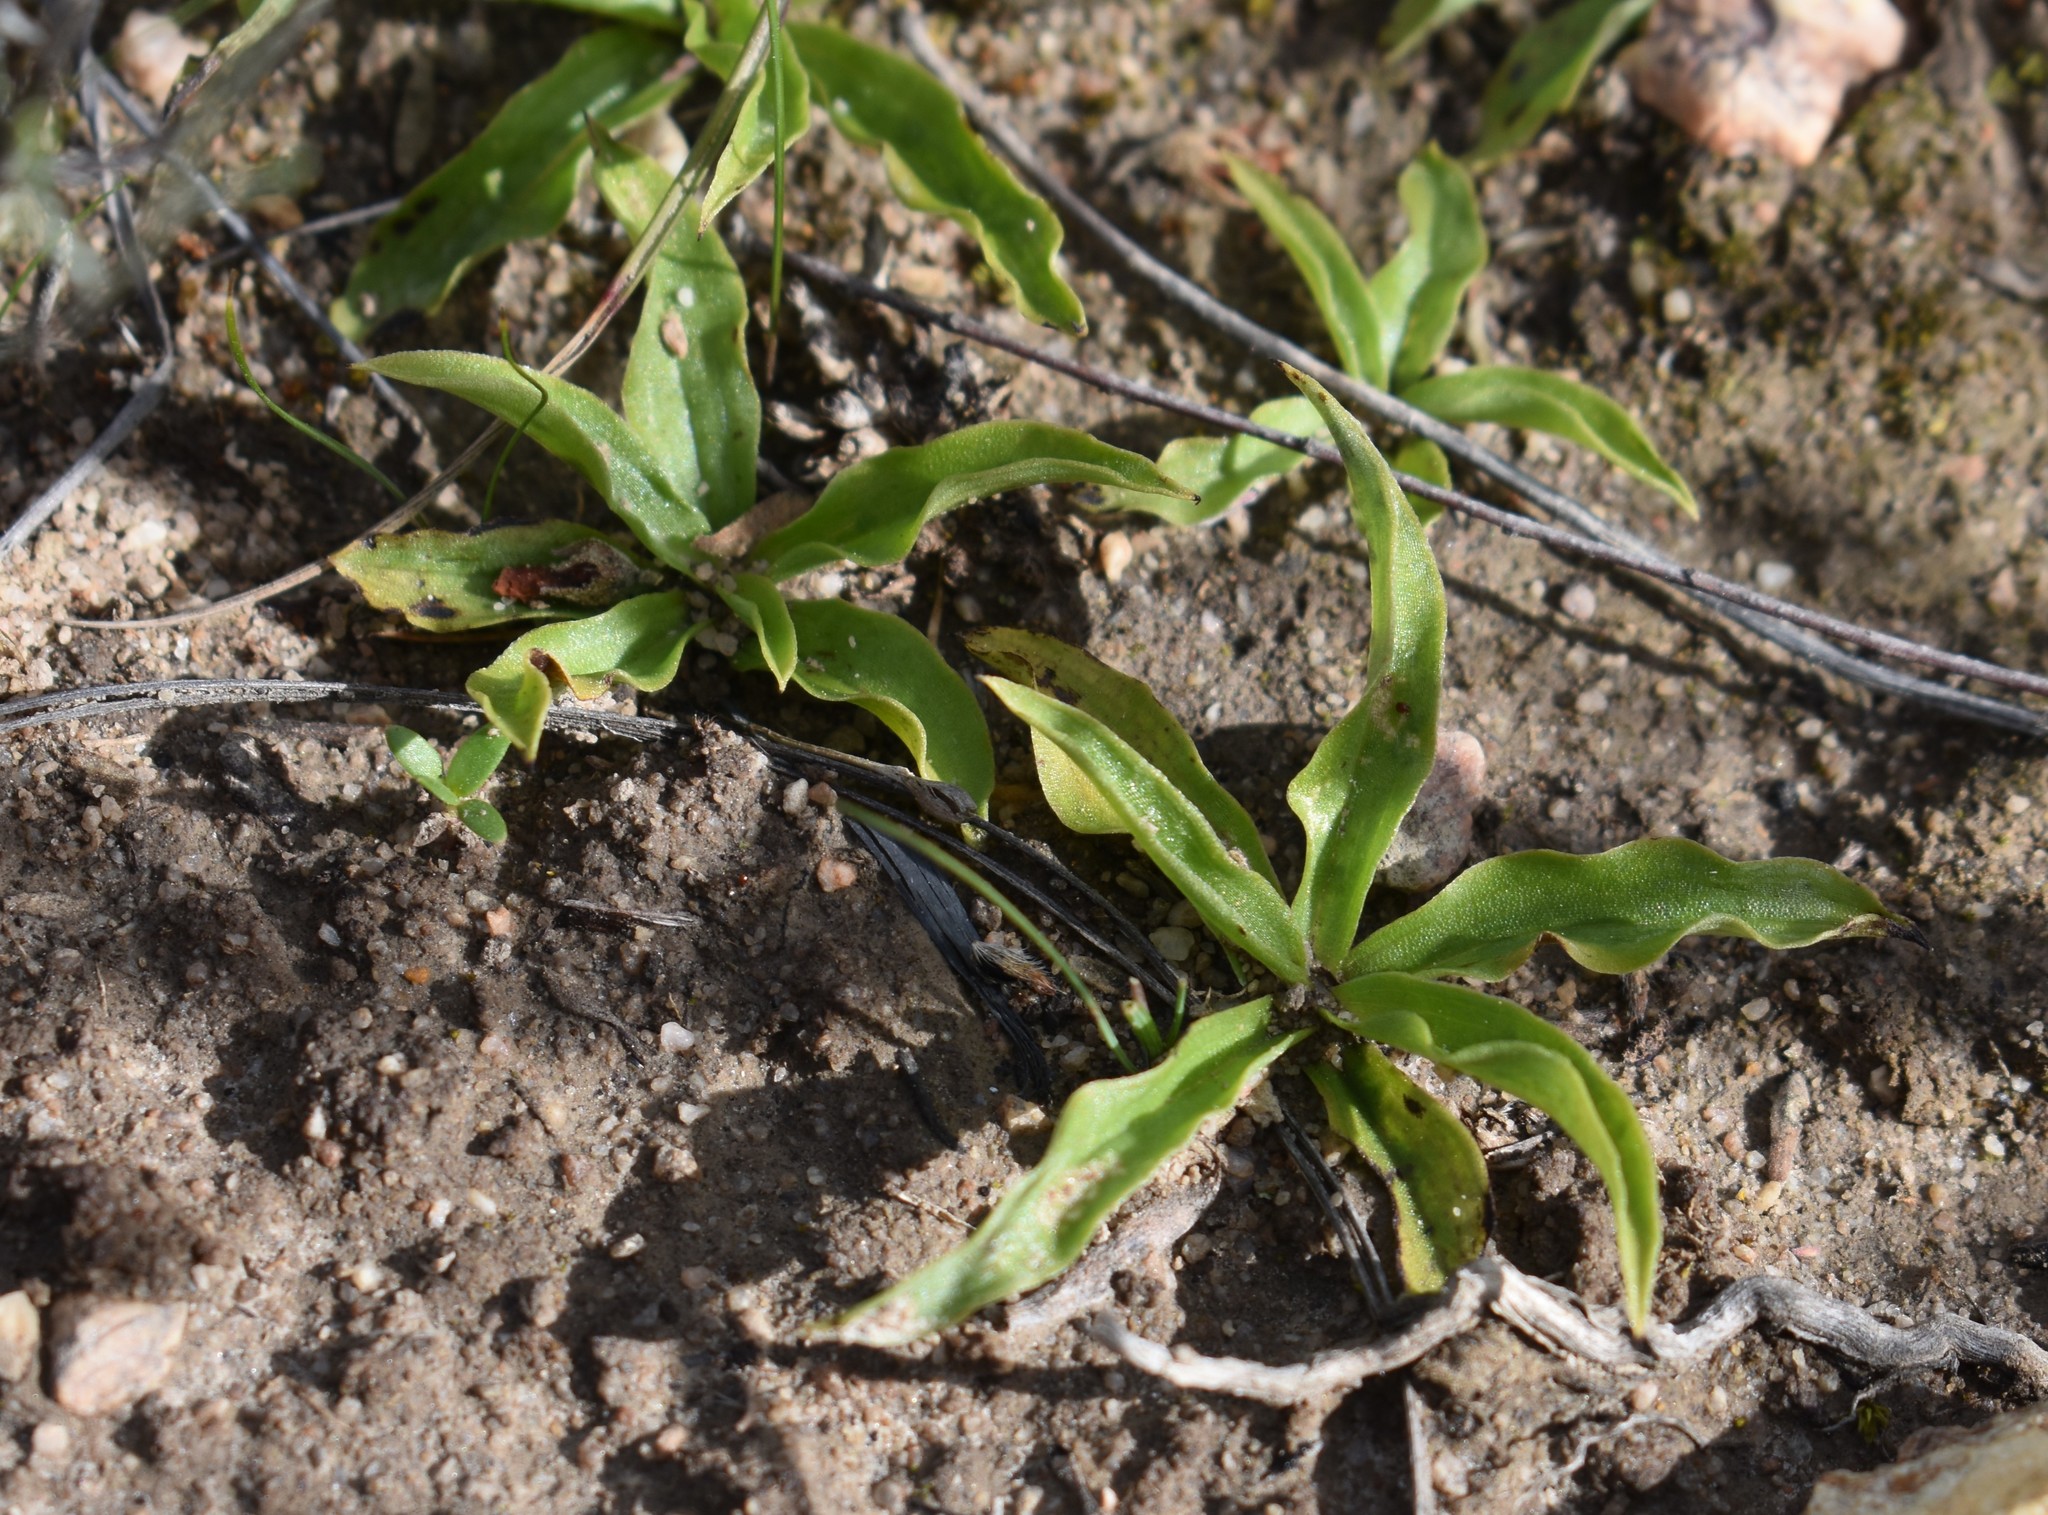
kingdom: Plantae
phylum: Tracheophyta
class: Liliopsida
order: Asparagales
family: Orchidaceae
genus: Pterygodium
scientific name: Pterygodium alatum
